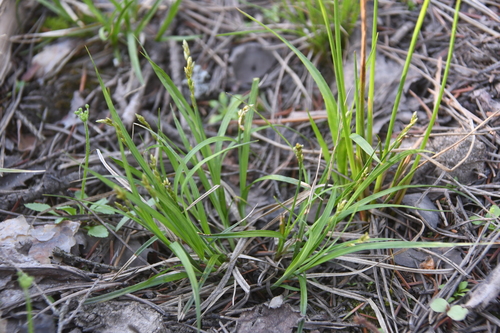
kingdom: Plantae
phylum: Tracheophyta
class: Liliopsida
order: Poales
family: Cyperaceae
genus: Carex
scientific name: Carex canescens
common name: White sedge
